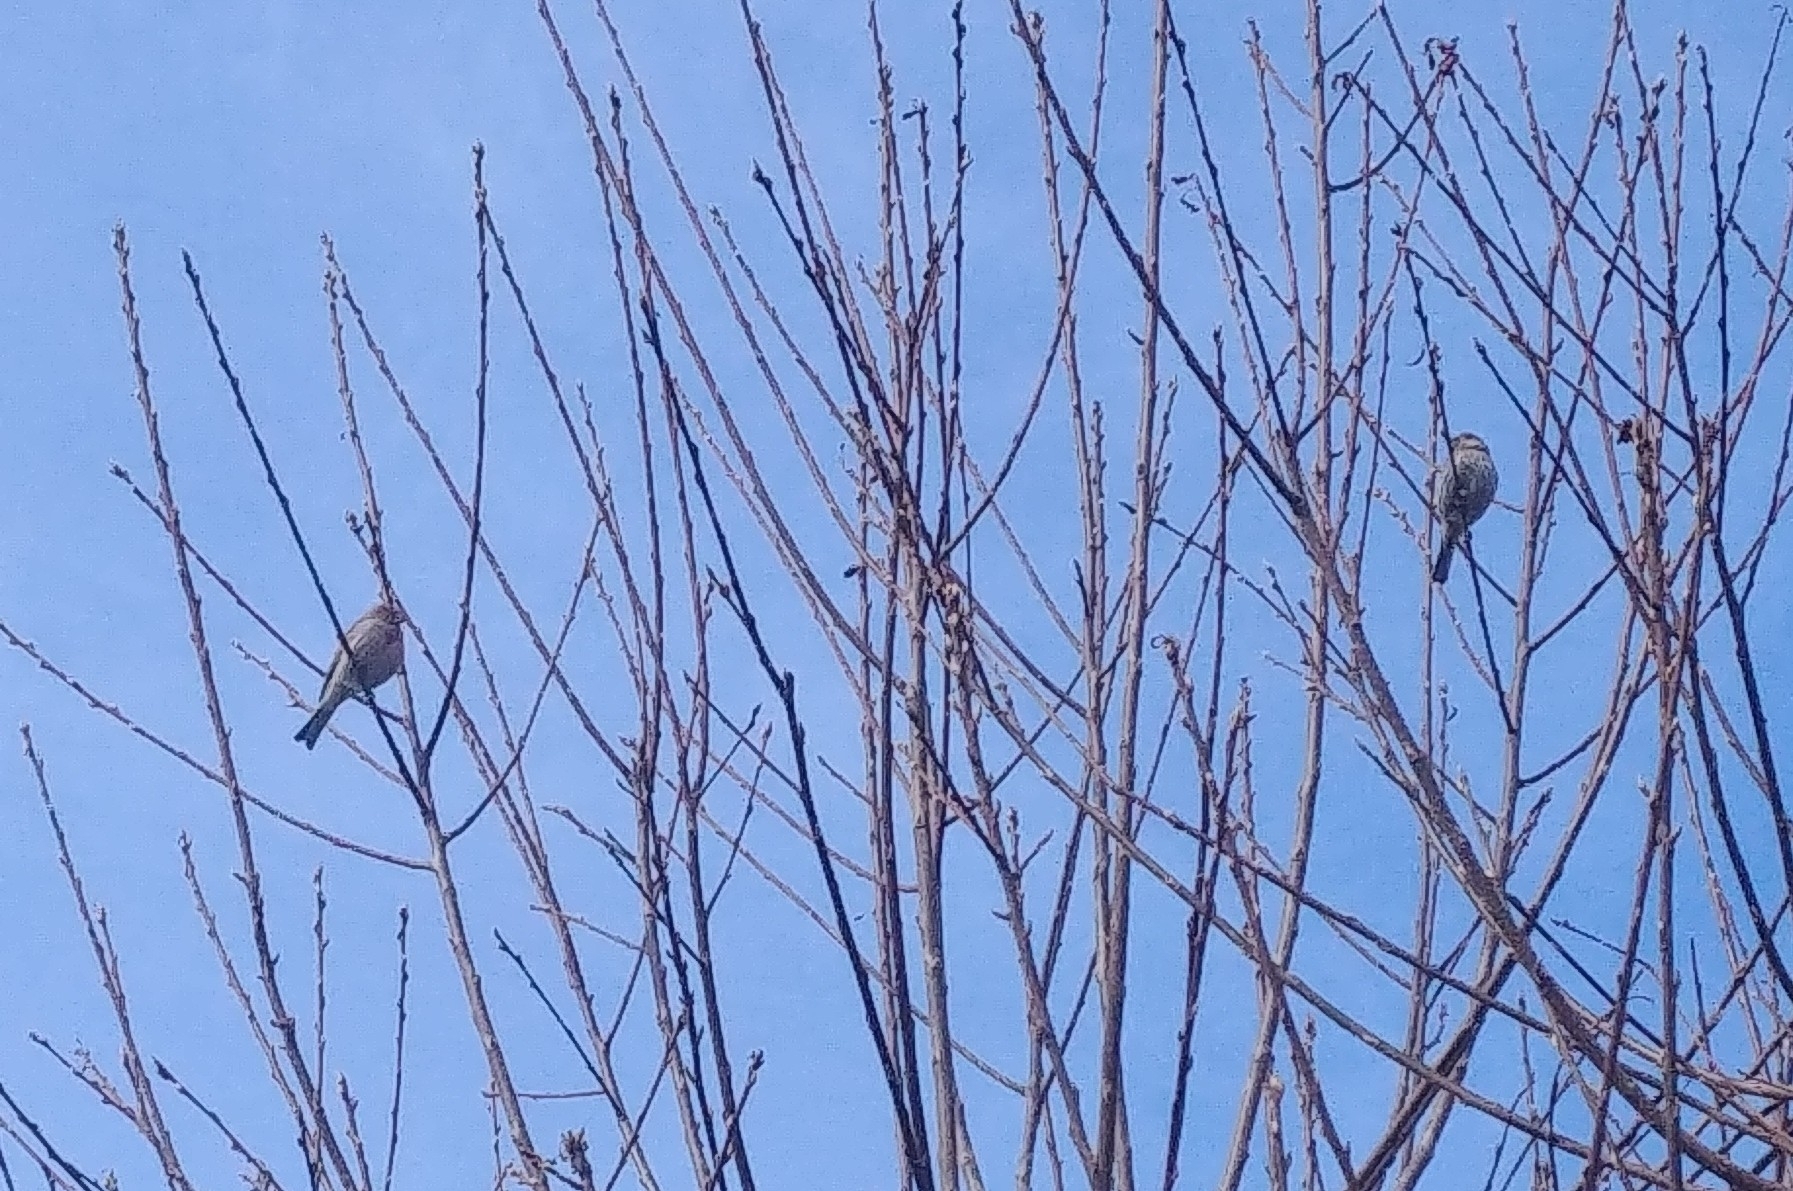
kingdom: Animalia
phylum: Chordata
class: Aves
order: Passeriformes
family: Fringillidae
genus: Haemorhous
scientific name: Haemorhous mexicanus
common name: House finch
